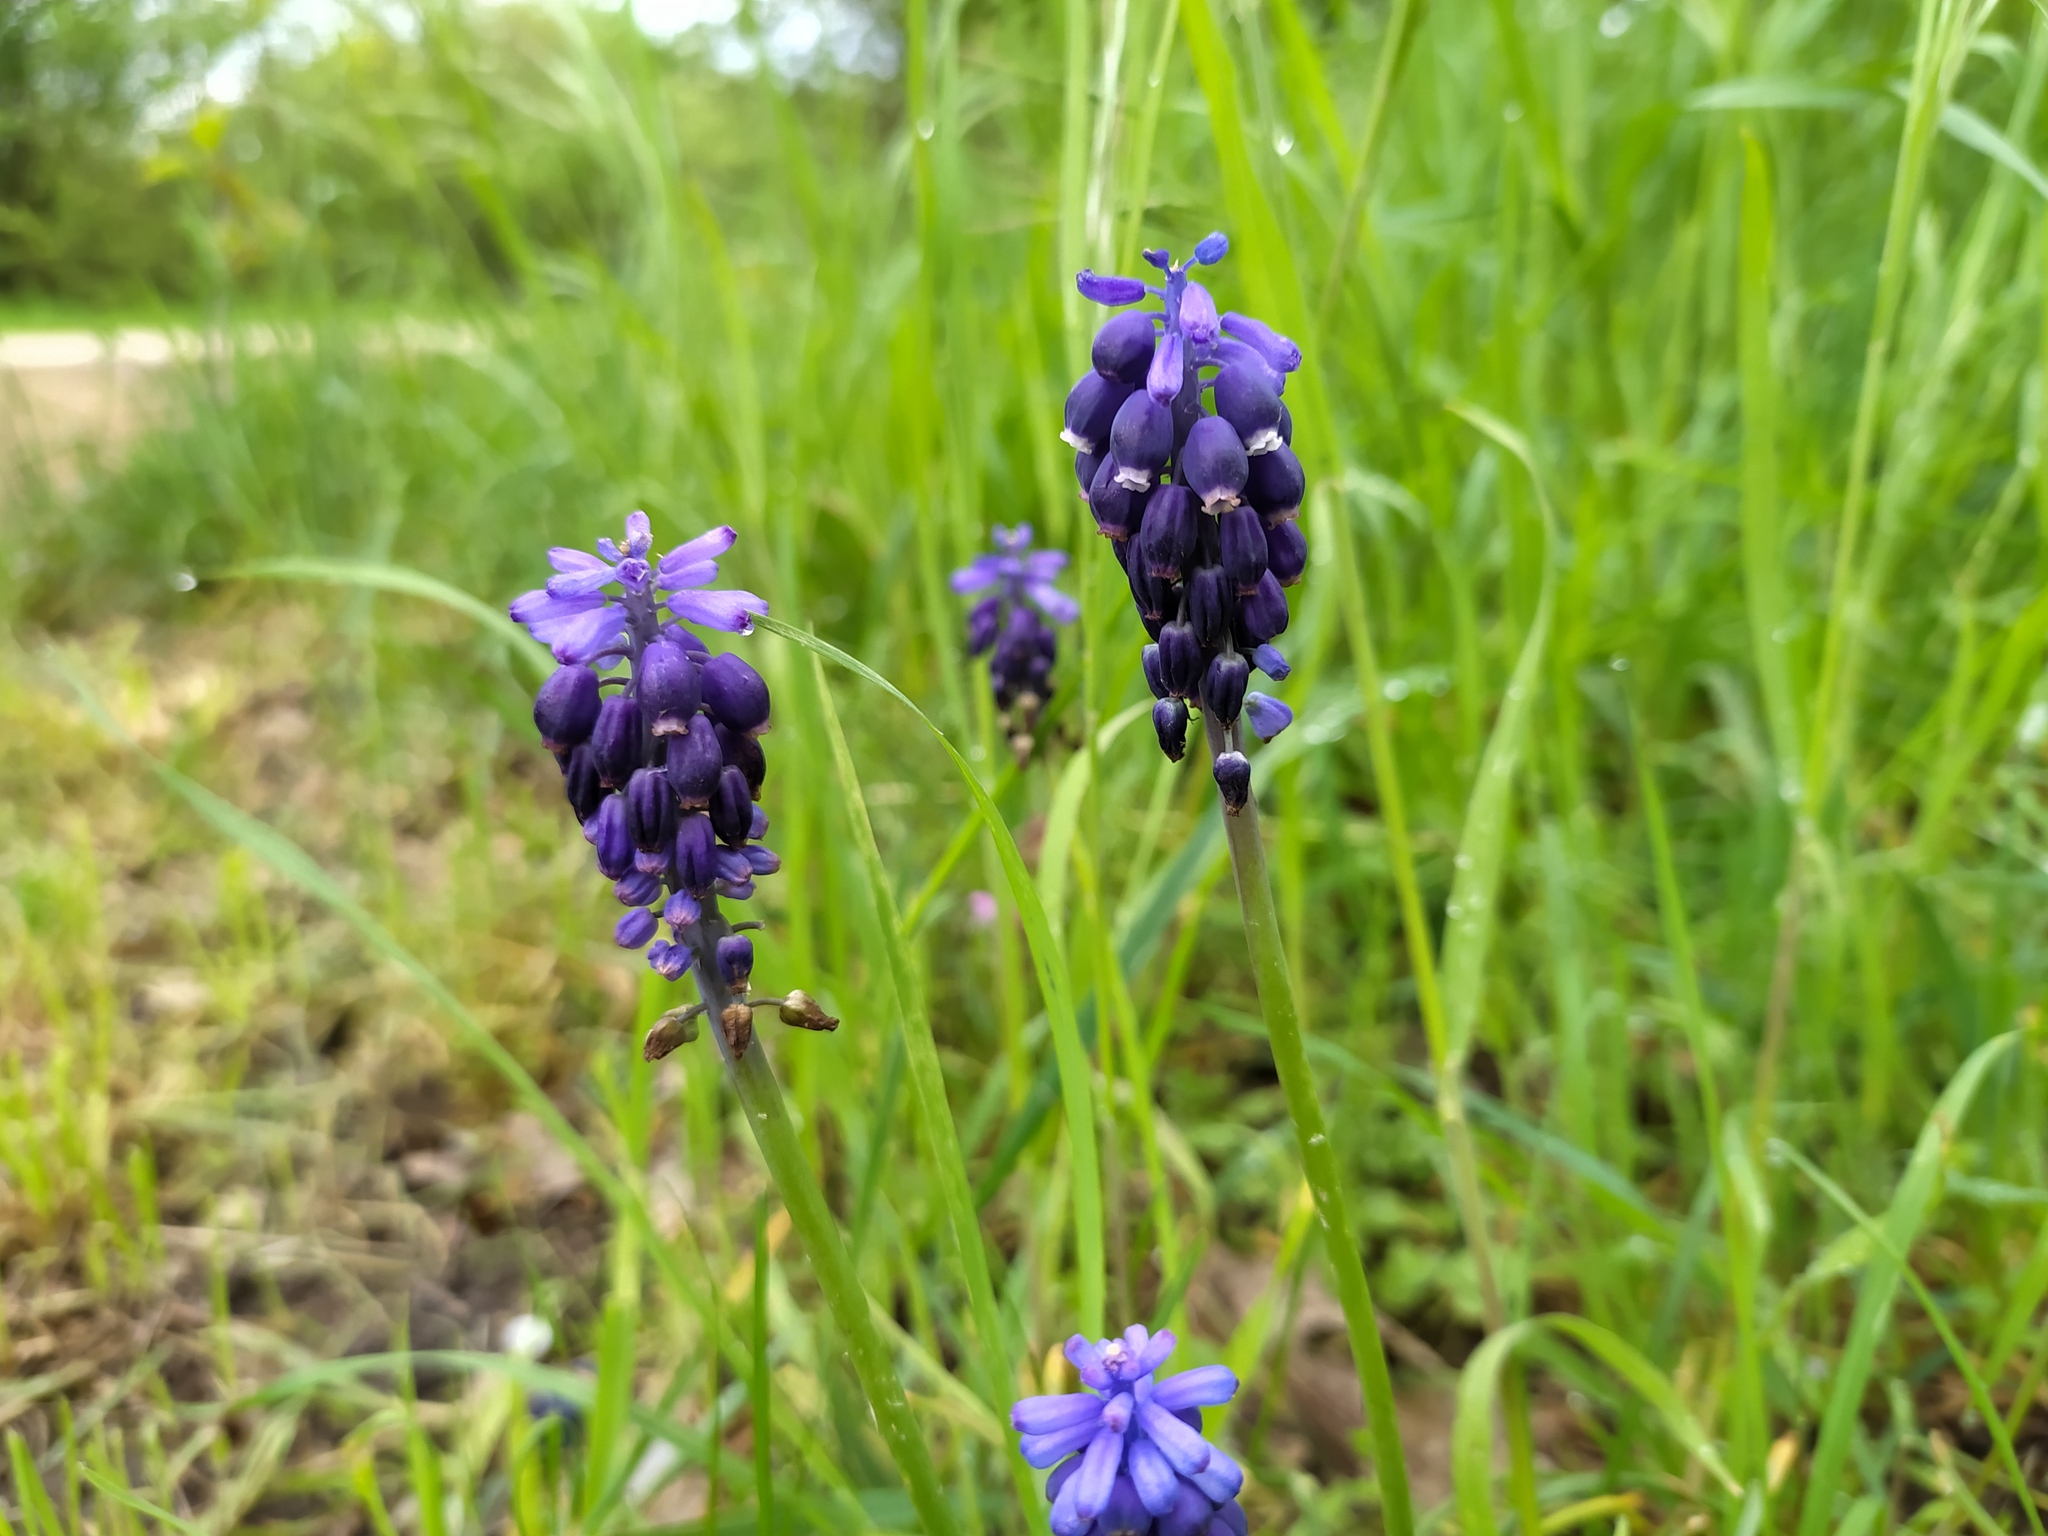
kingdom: Plantae
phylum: Tracheophyta
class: Liliopsida
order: Asparagales
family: Asparagaceae
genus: Muscari
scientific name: Muscari neglectum
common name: Grape-hyacinth
